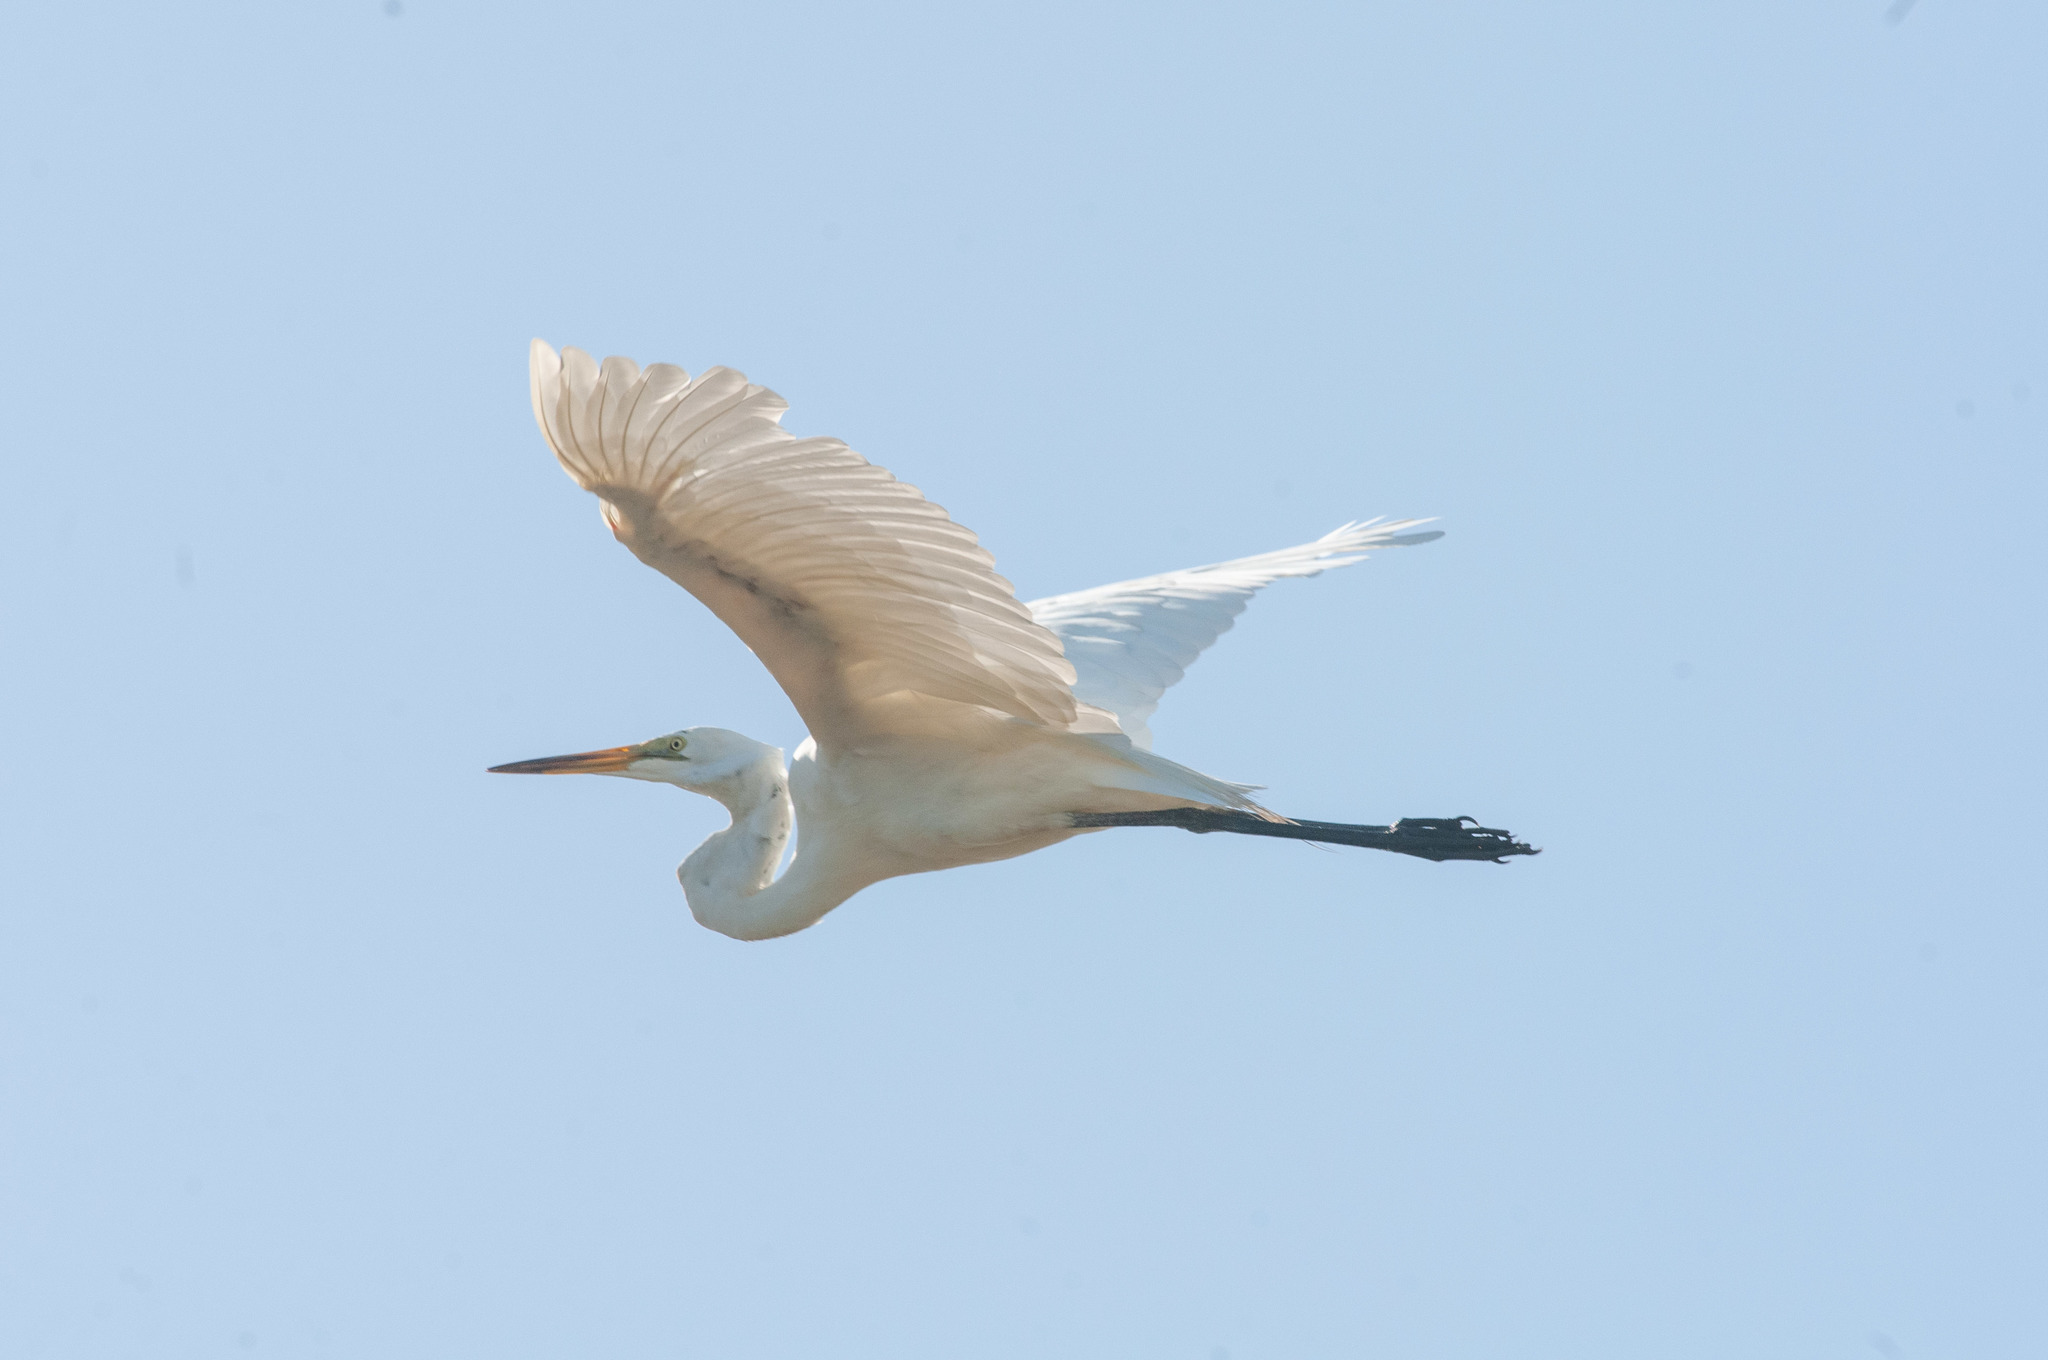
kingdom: Animalia
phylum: Chordata
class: Aves
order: Pelecaniformes
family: Ardeidae
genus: Ardea
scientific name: Ardea modesta
